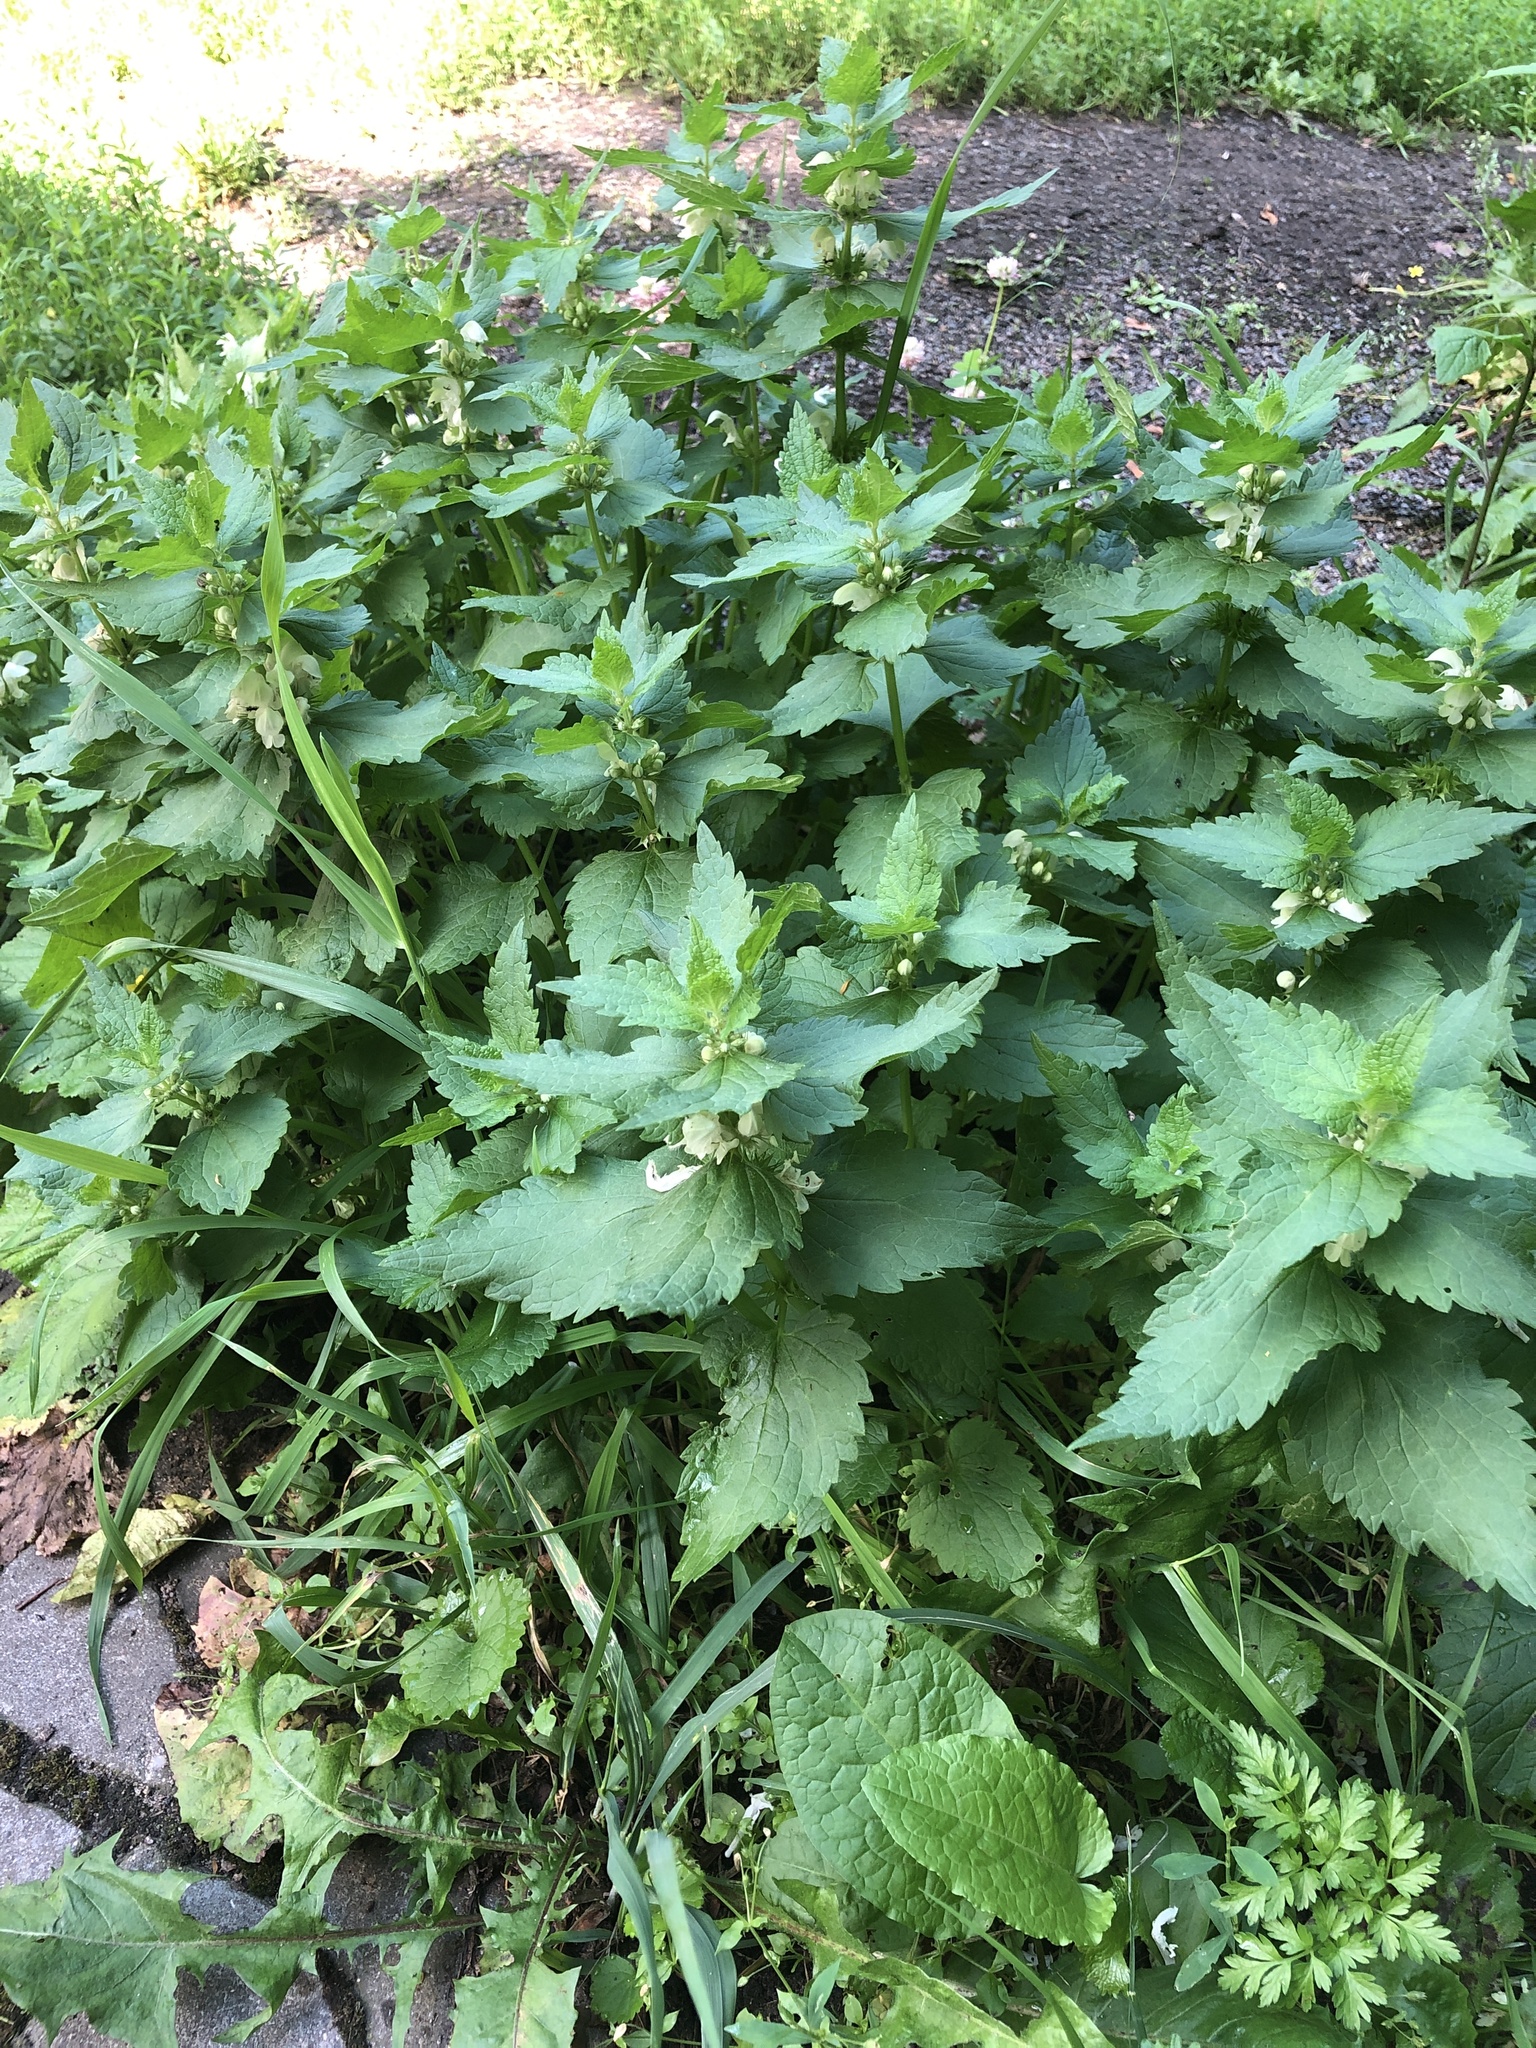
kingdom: Plantae
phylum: Tracheophyta
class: Magnoliopsida
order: Lamiales
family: Lamiaceae
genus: Lamium
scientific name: Lamium album
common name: White dead-nettle
